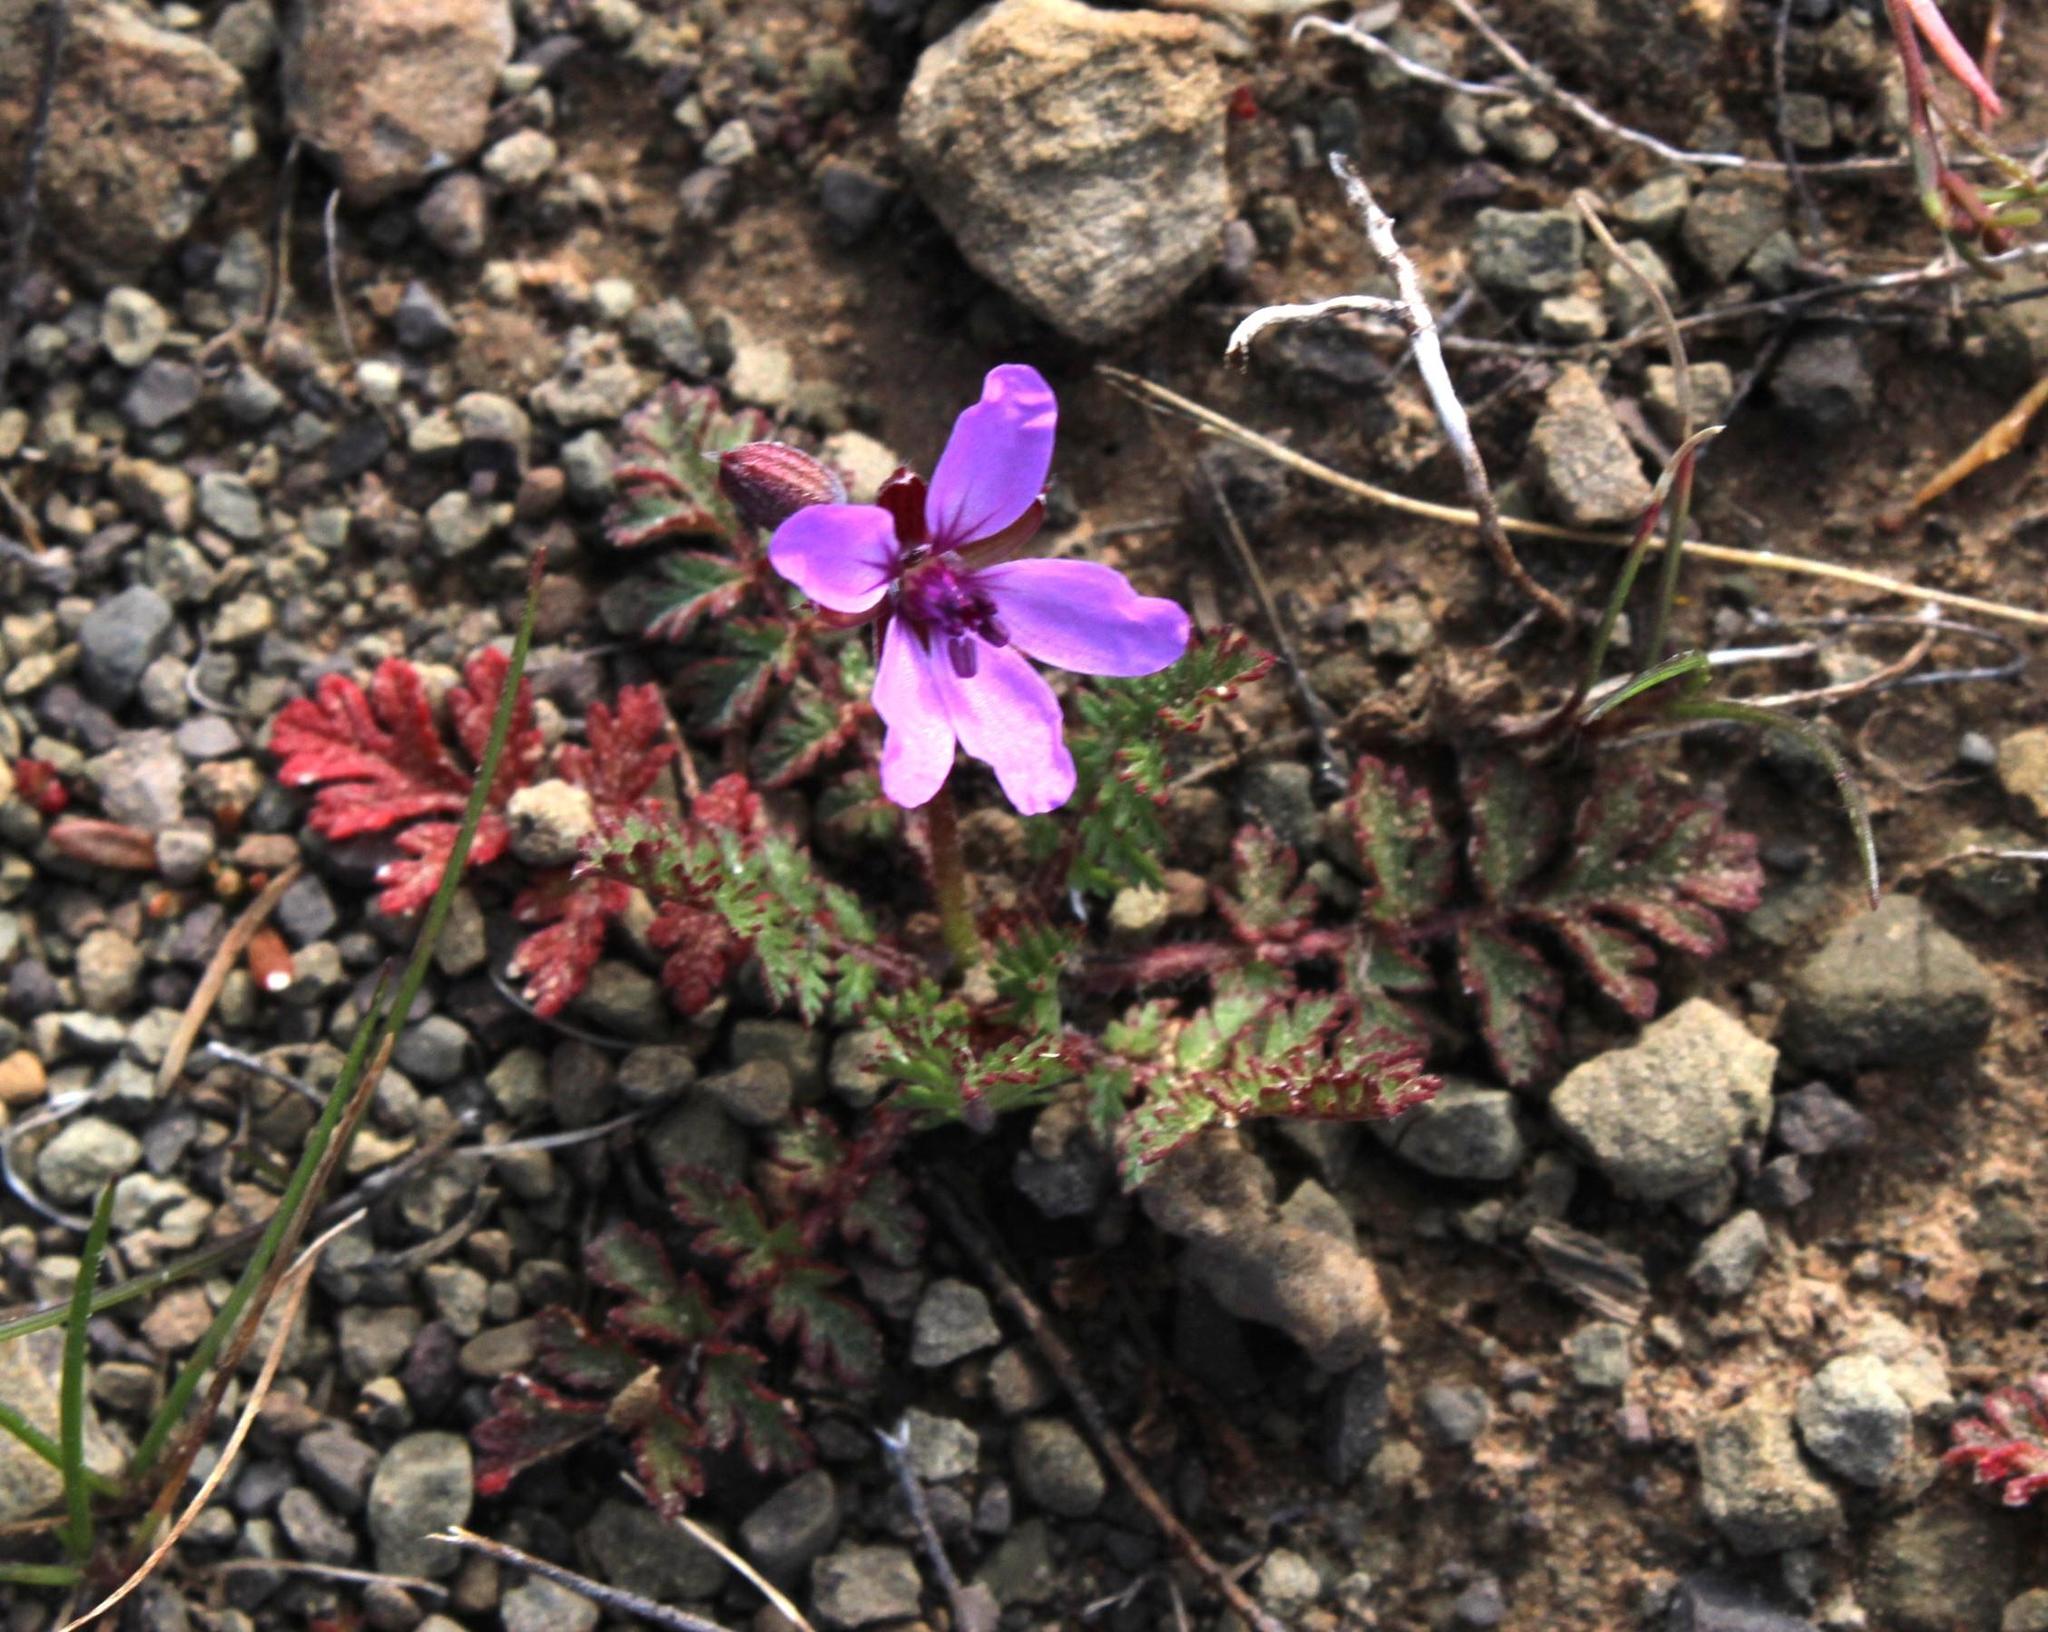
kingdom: Plantae
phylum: Tracheophyta
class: Magnoliopsida
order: Geraniales
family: Geraniaceae
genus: Erodium
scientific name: Erodium cicutarium
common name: Common stork's-bill
